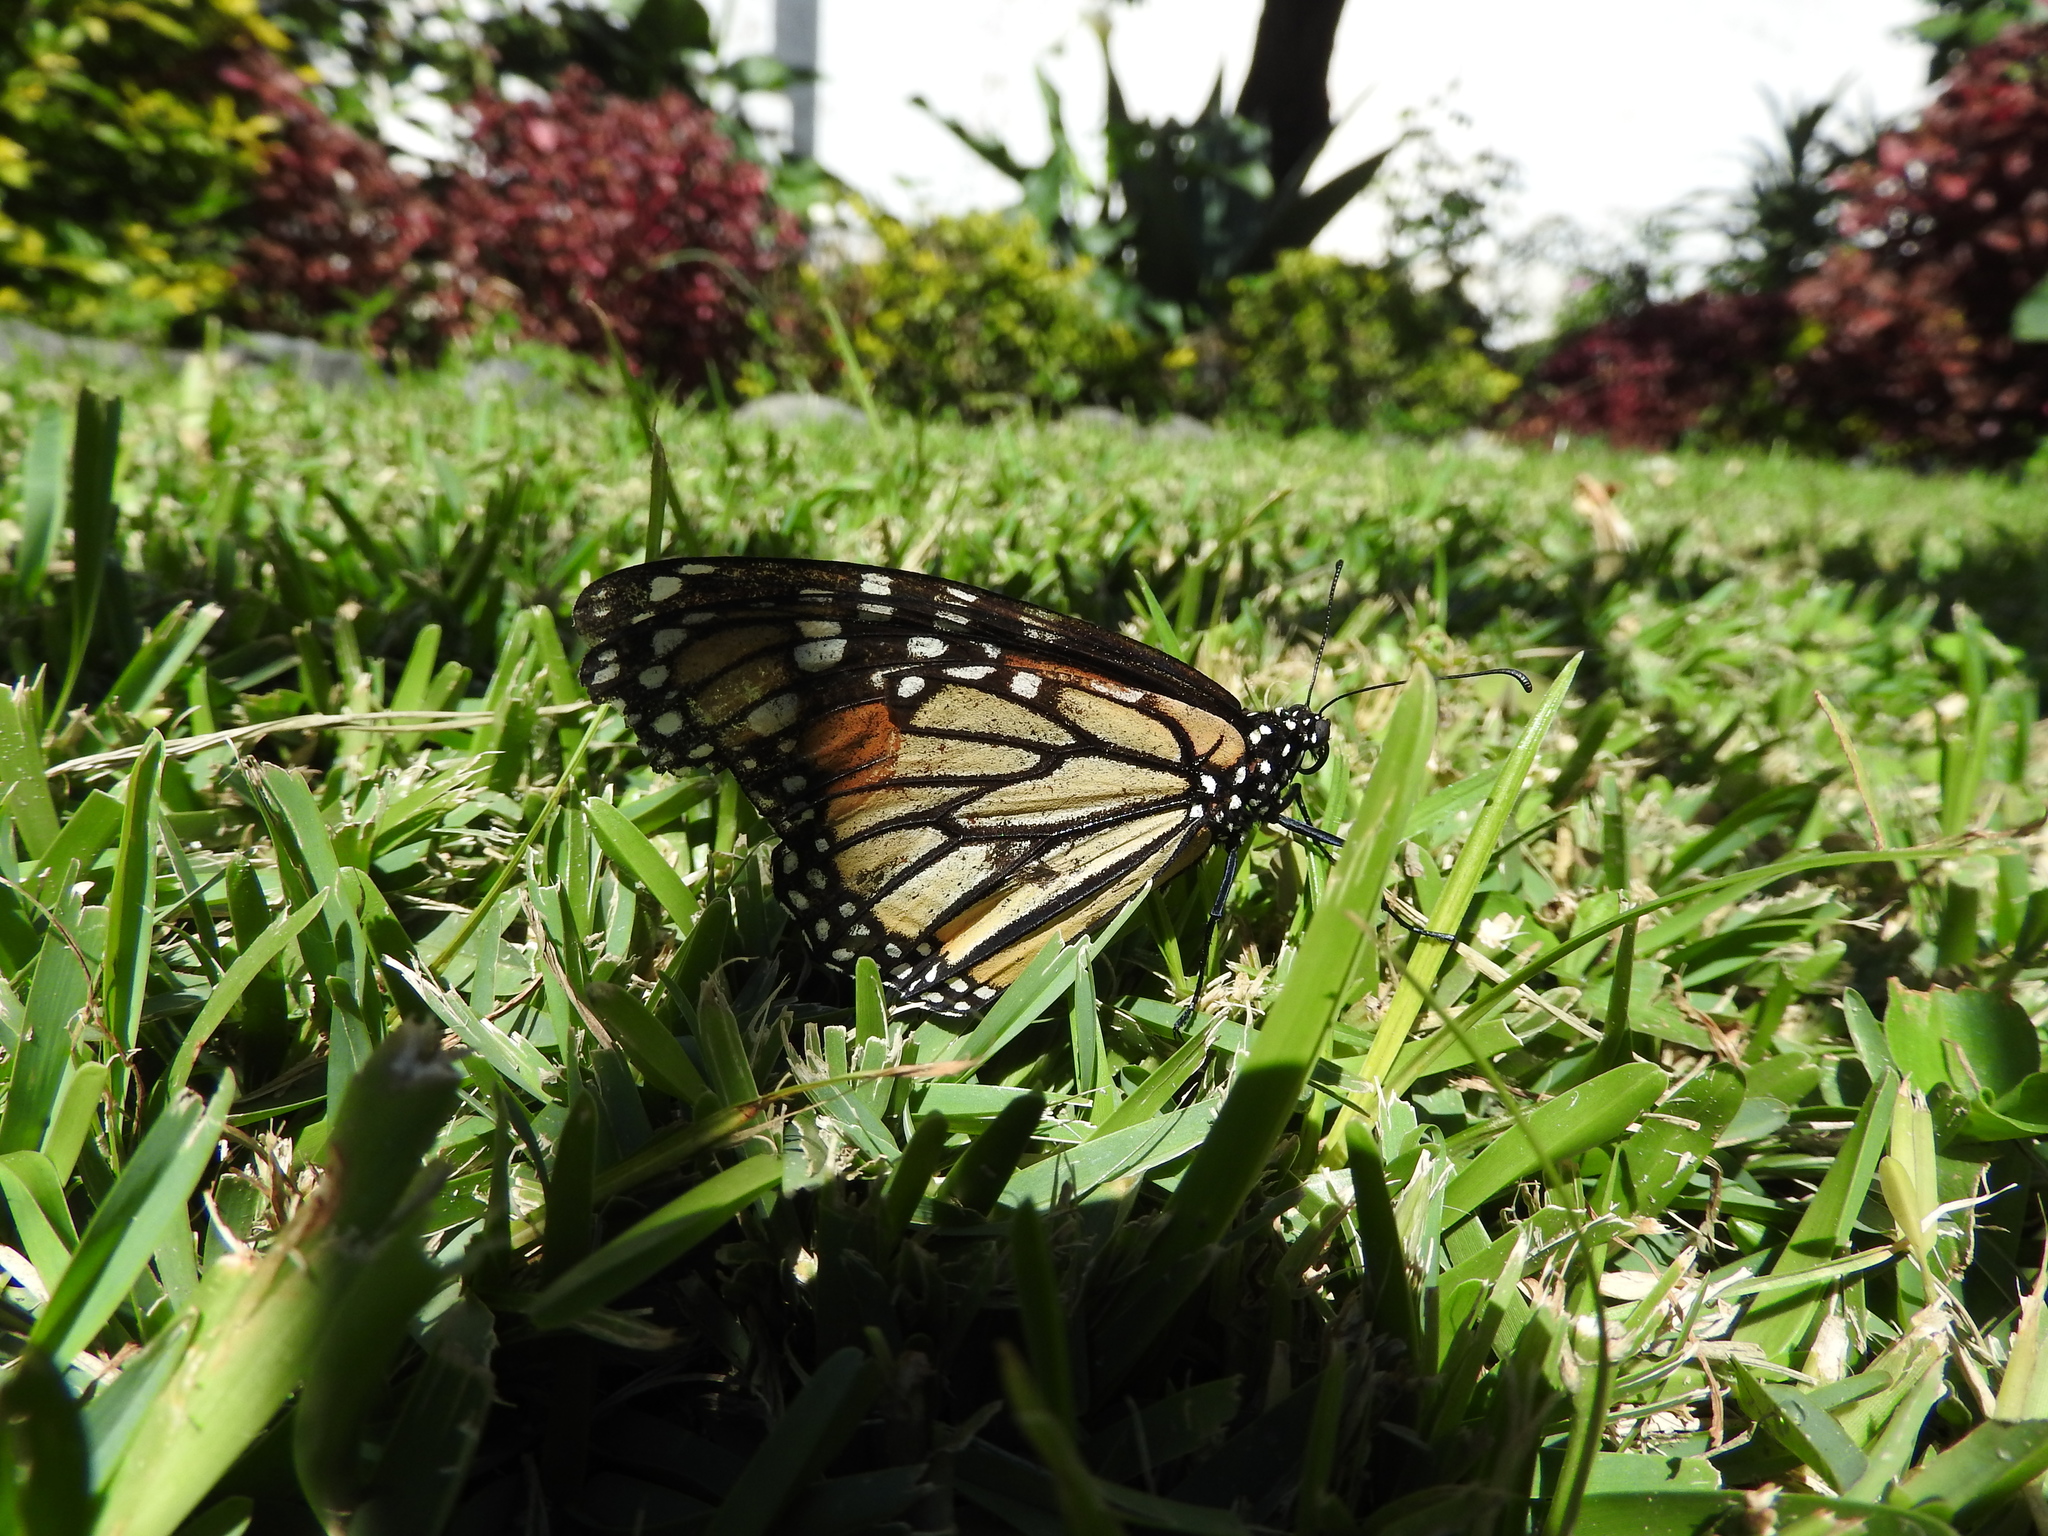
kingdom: Animalia
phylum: Arthropoda
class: Insecta
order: Lepidoptera
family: Nymphalidae
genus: Danaus
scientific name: Danaus plexippus
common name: Monarch
